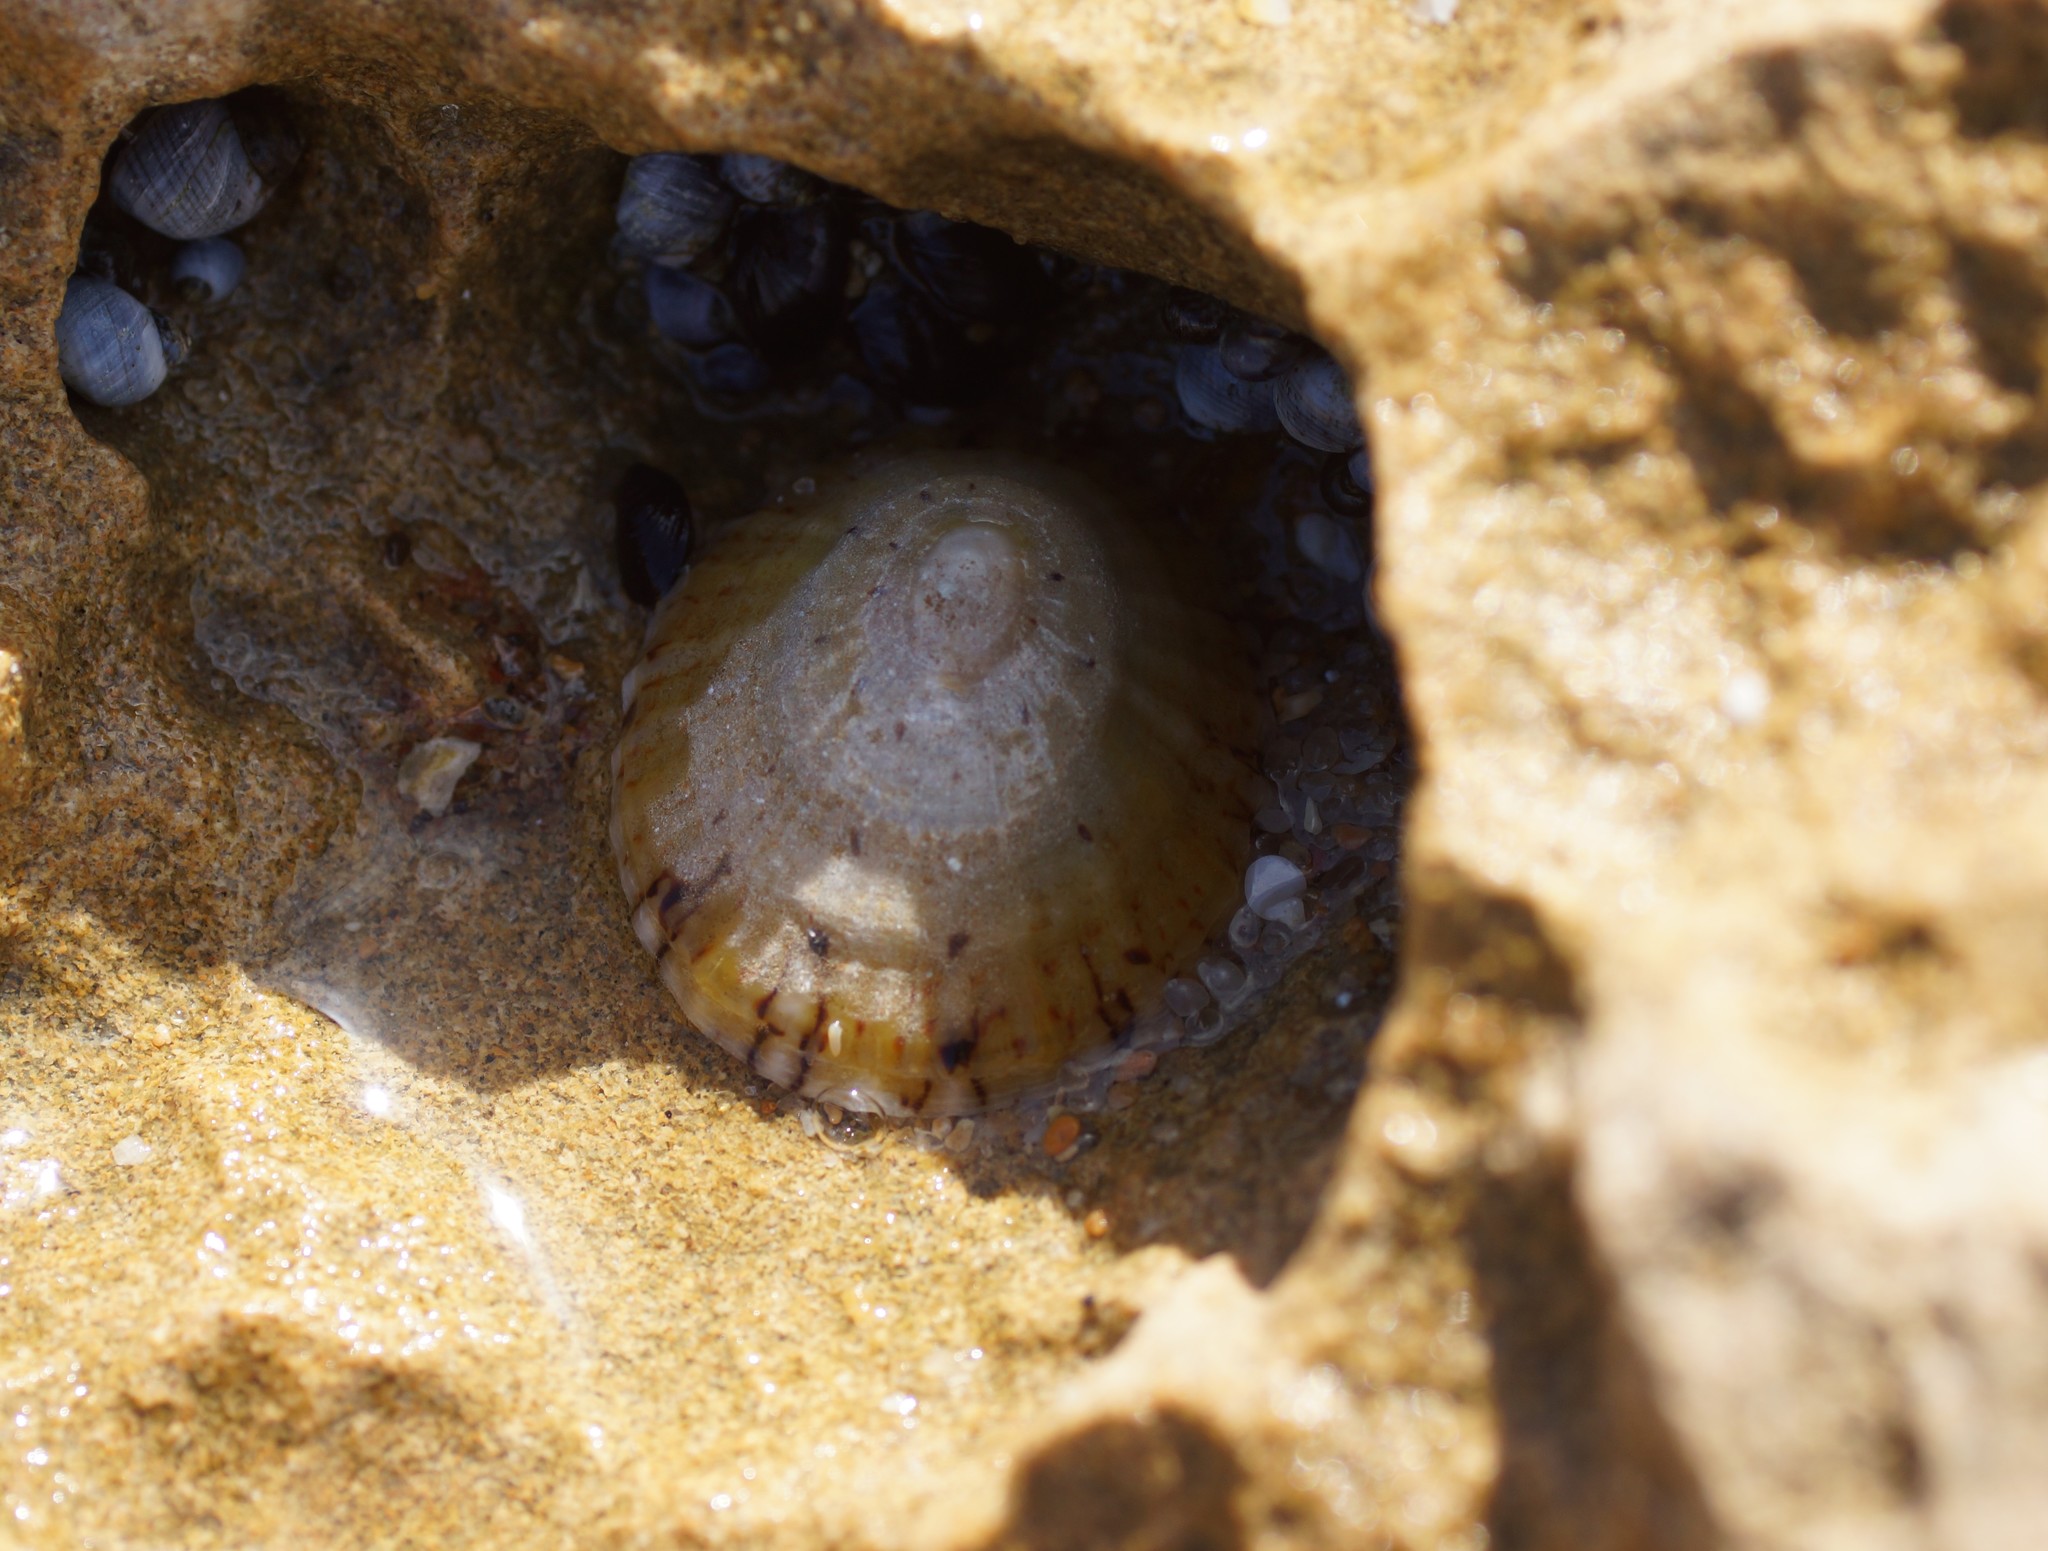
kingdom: Animalia
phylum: Mollusca
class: Gastropoda
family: Nacellidae
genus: Cellana
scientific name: Cellana tramoserica
